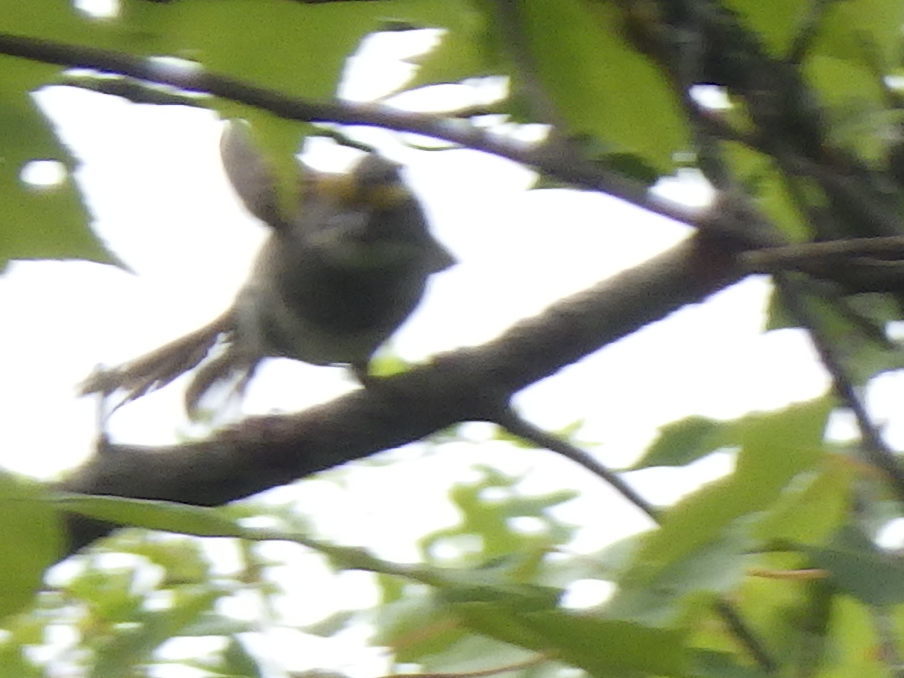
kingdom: Animalia
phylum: Chordata
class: Aves
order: Passeriformes
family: Passerellidae
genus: Zonotrichia
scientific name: Zonotrichia albicollis
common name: White-throated sparrow
